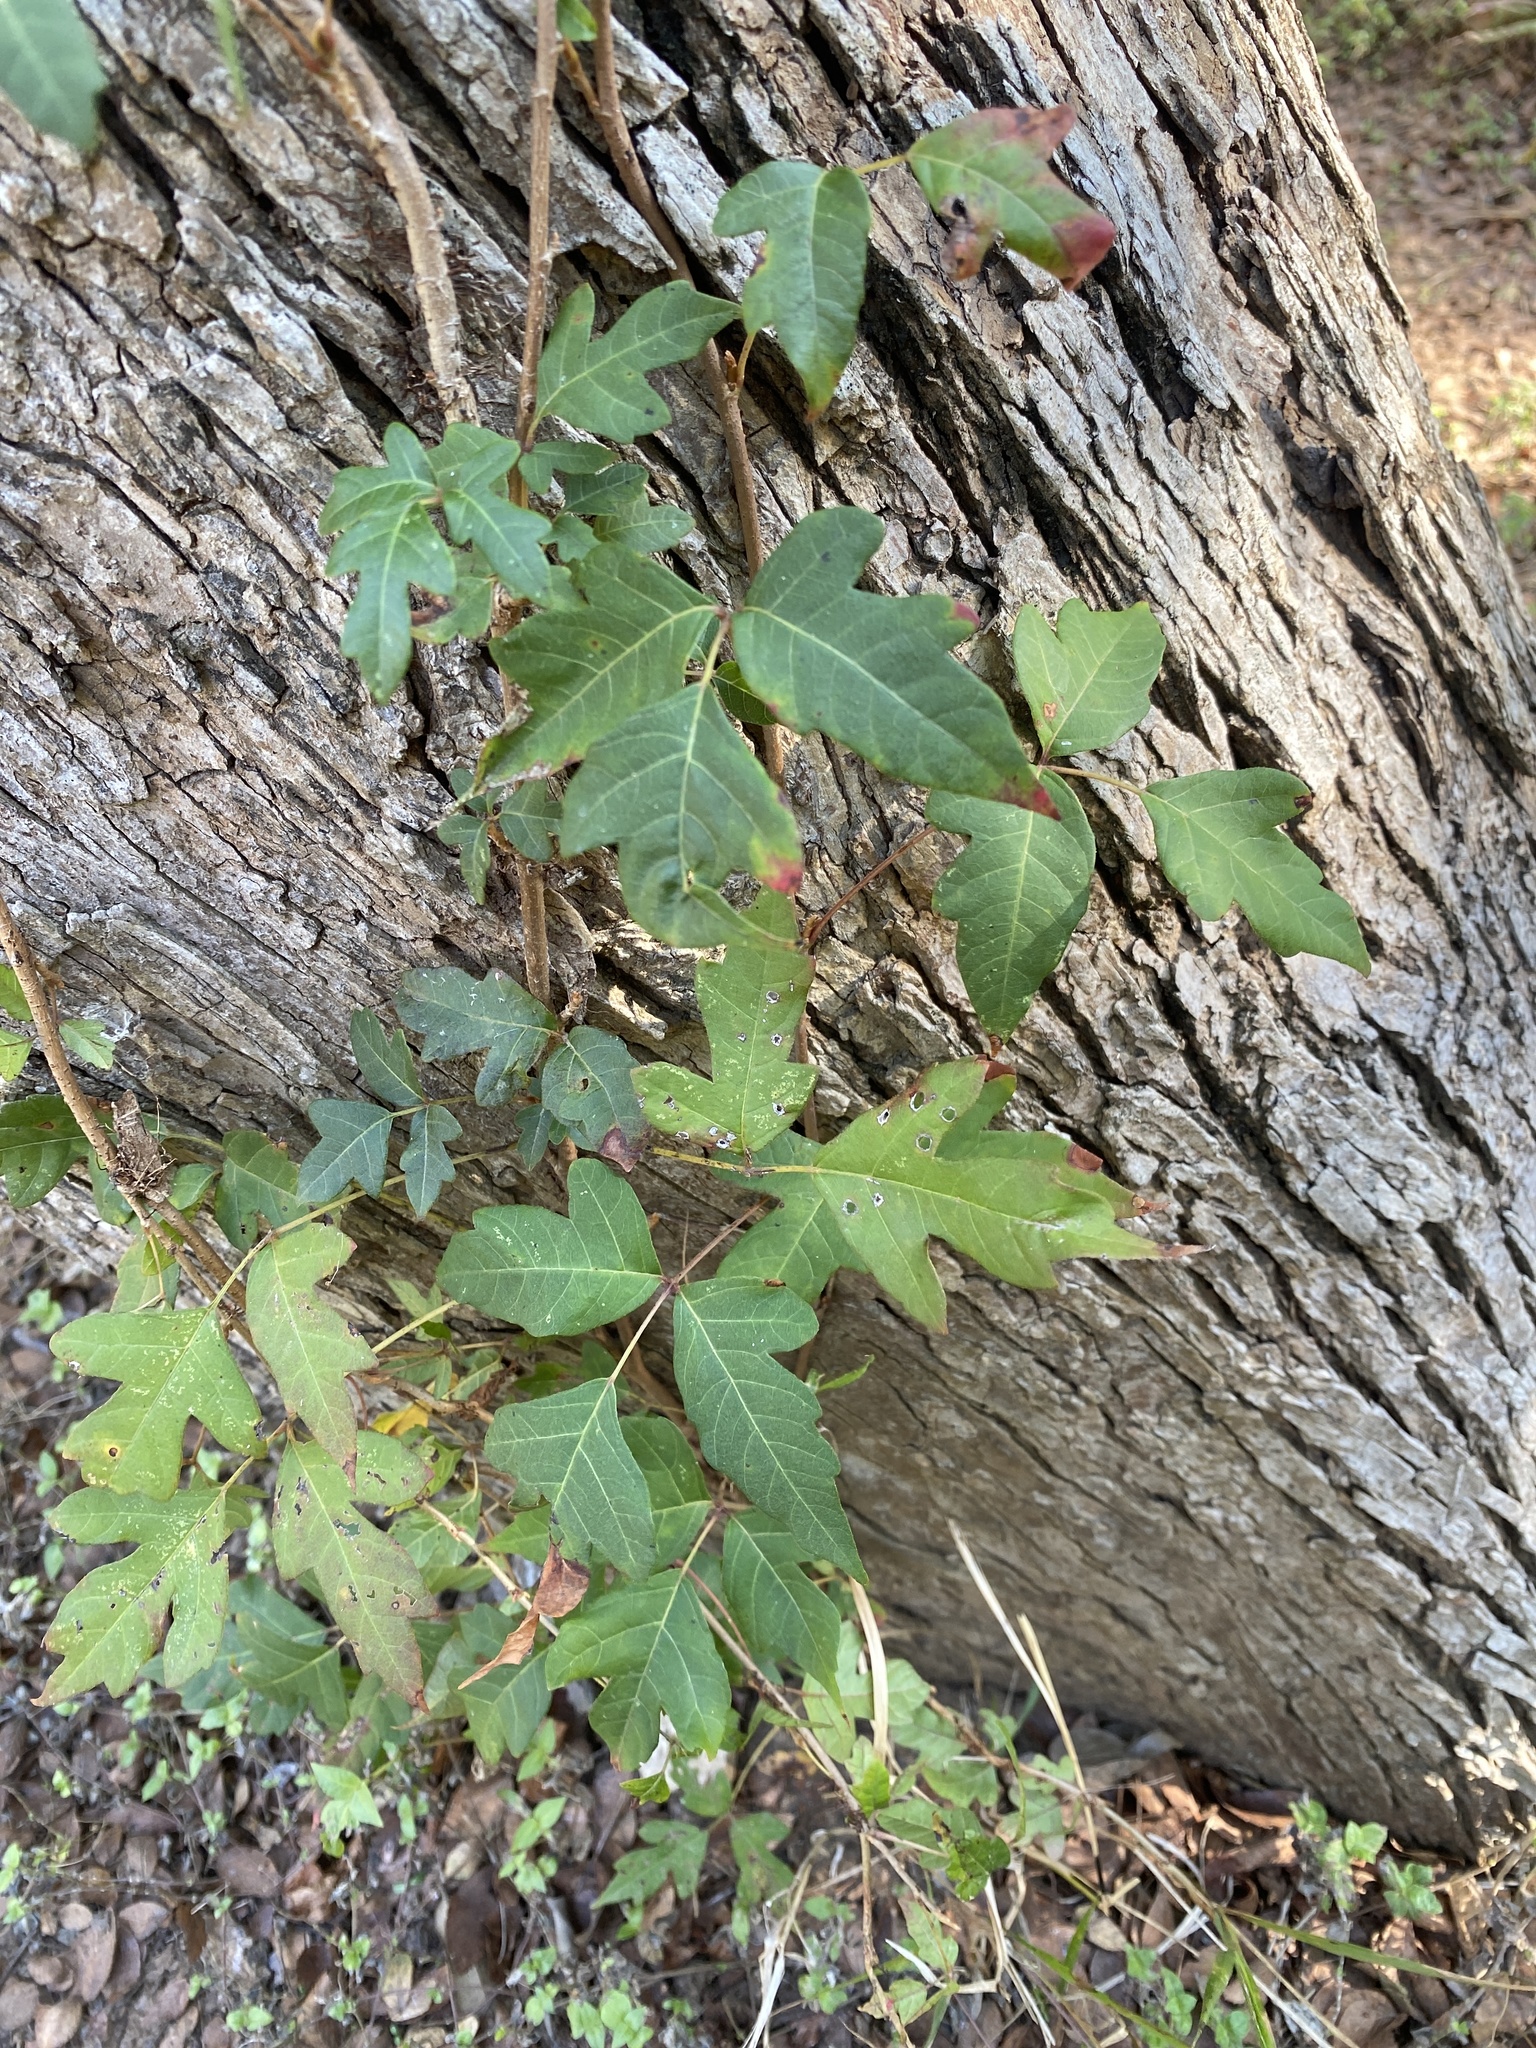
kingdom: Plantae
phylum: Tracheophyta
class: Magnoliopsida
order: Sapindales
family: Anacardiaceae
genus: Toxicodendron
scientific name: Toxicodendron radicans
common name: Poison ivy
